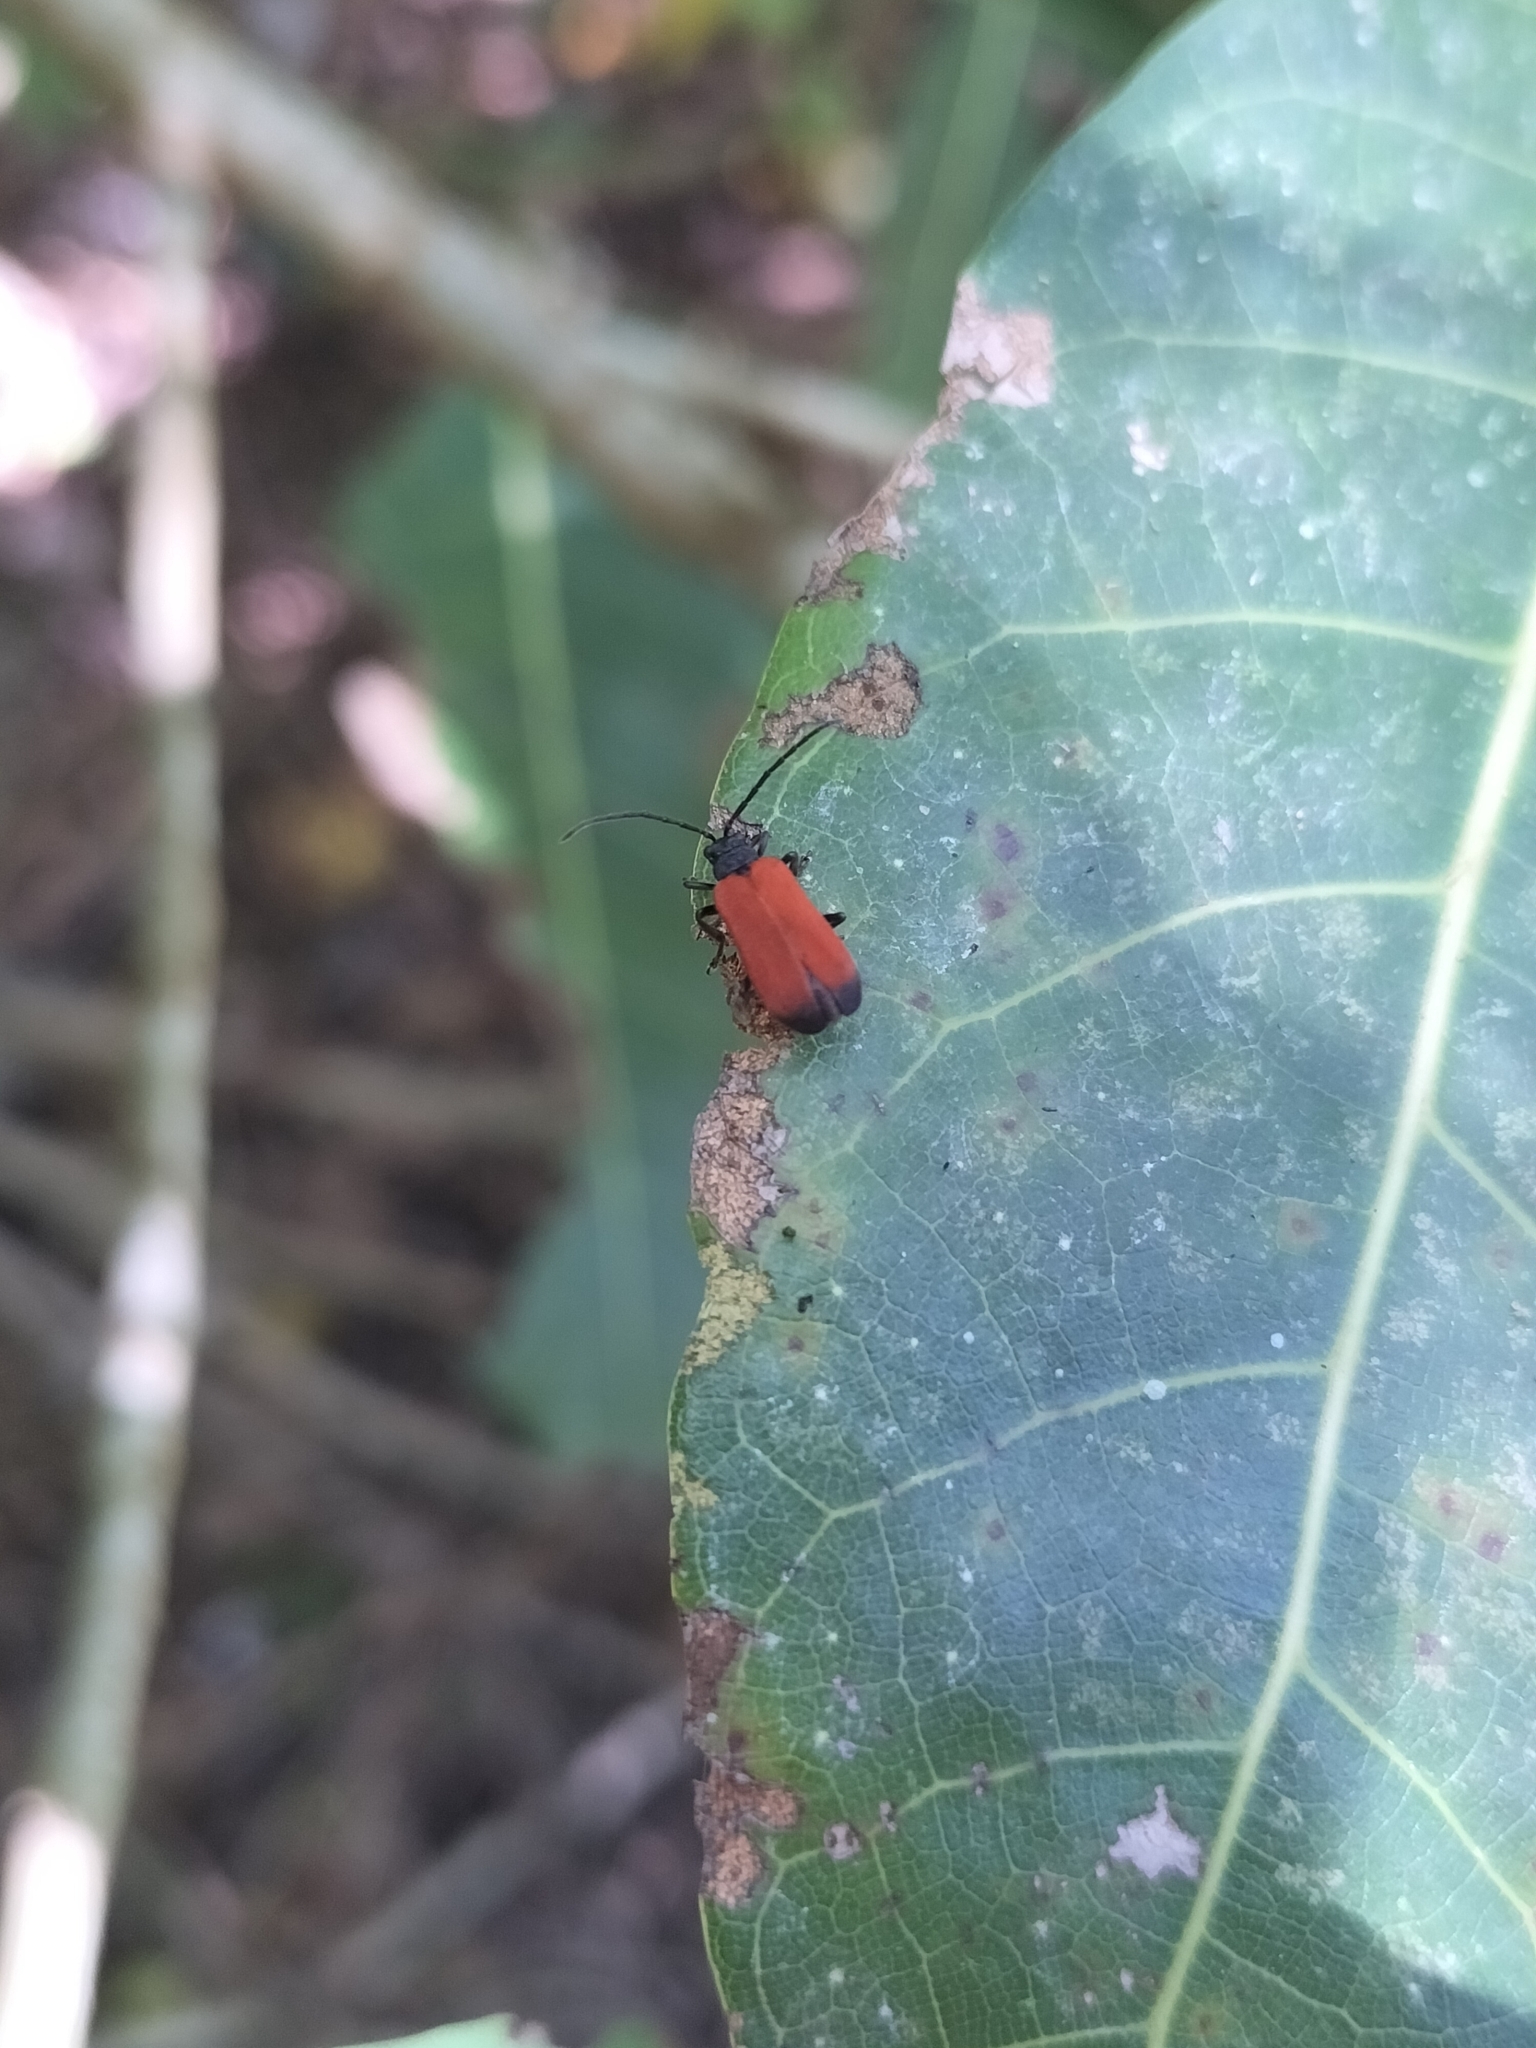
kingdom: Animalia
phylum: Arthropoda
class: Insecta
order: Coleoptera
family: Chrysomelidae
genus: Atysa
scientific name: Atysa
